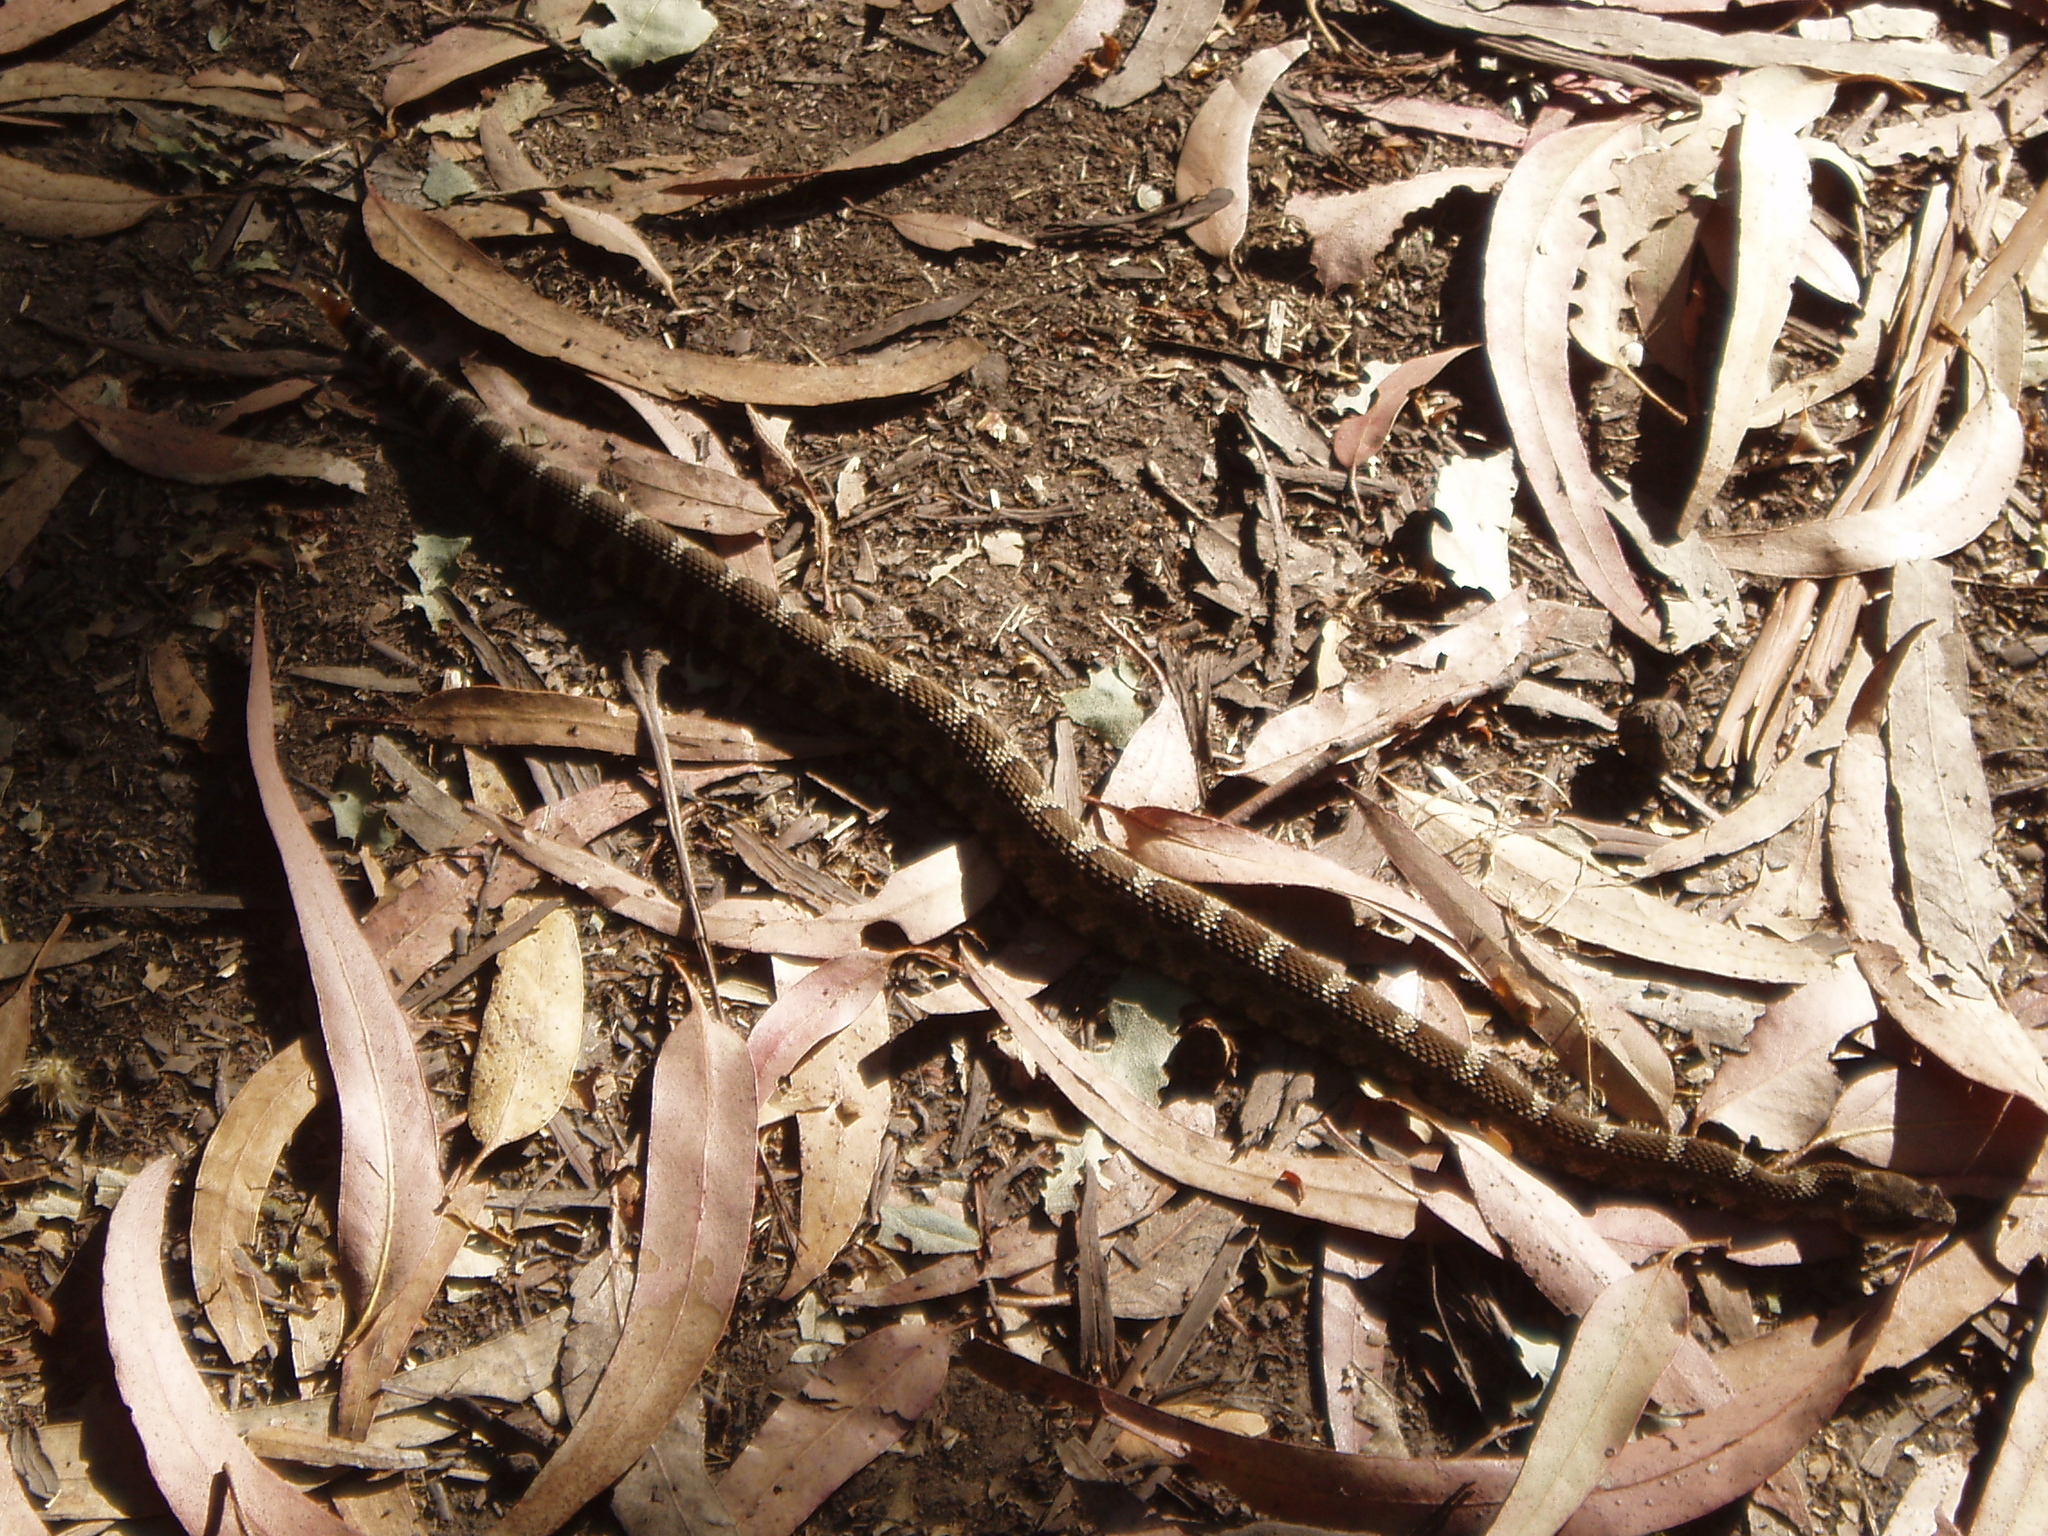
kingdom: Animalia
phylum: Chordata
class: Squamata
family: Viperidae
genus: Crotalus
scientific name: Crotalus oreganus
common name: Abyssus
